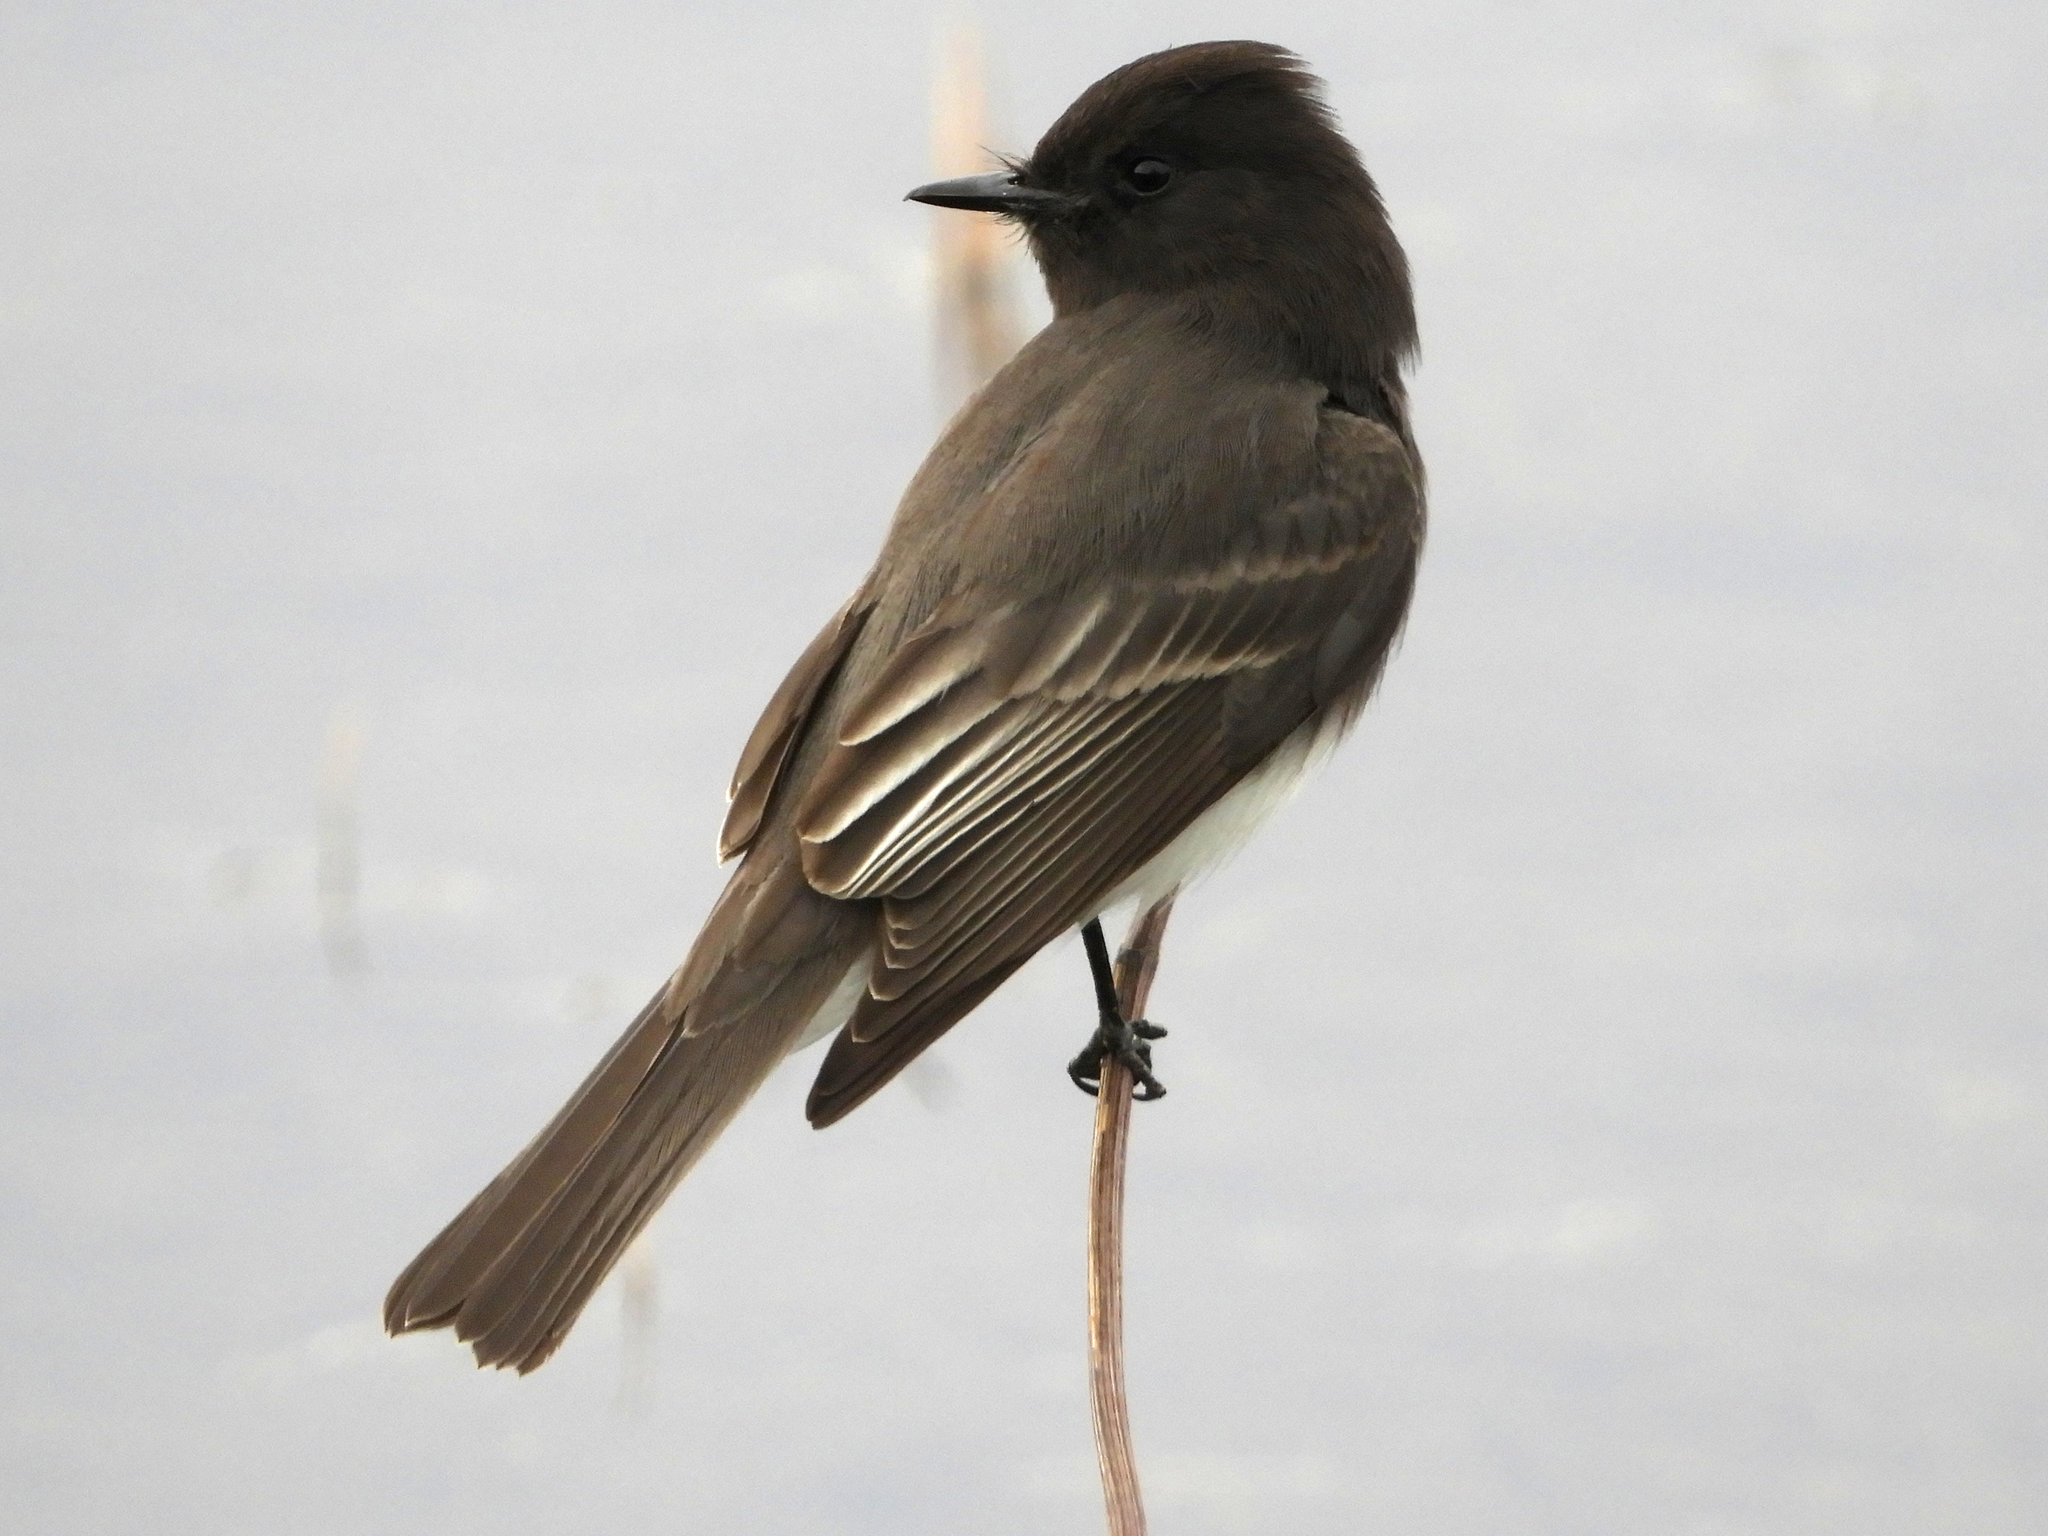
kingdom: Animalia
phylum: Chordata
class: Aves
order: Passeriformes
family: Tyrannidae
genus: Sayornis
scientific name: Sayornis nigricans
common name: Black phoebe
